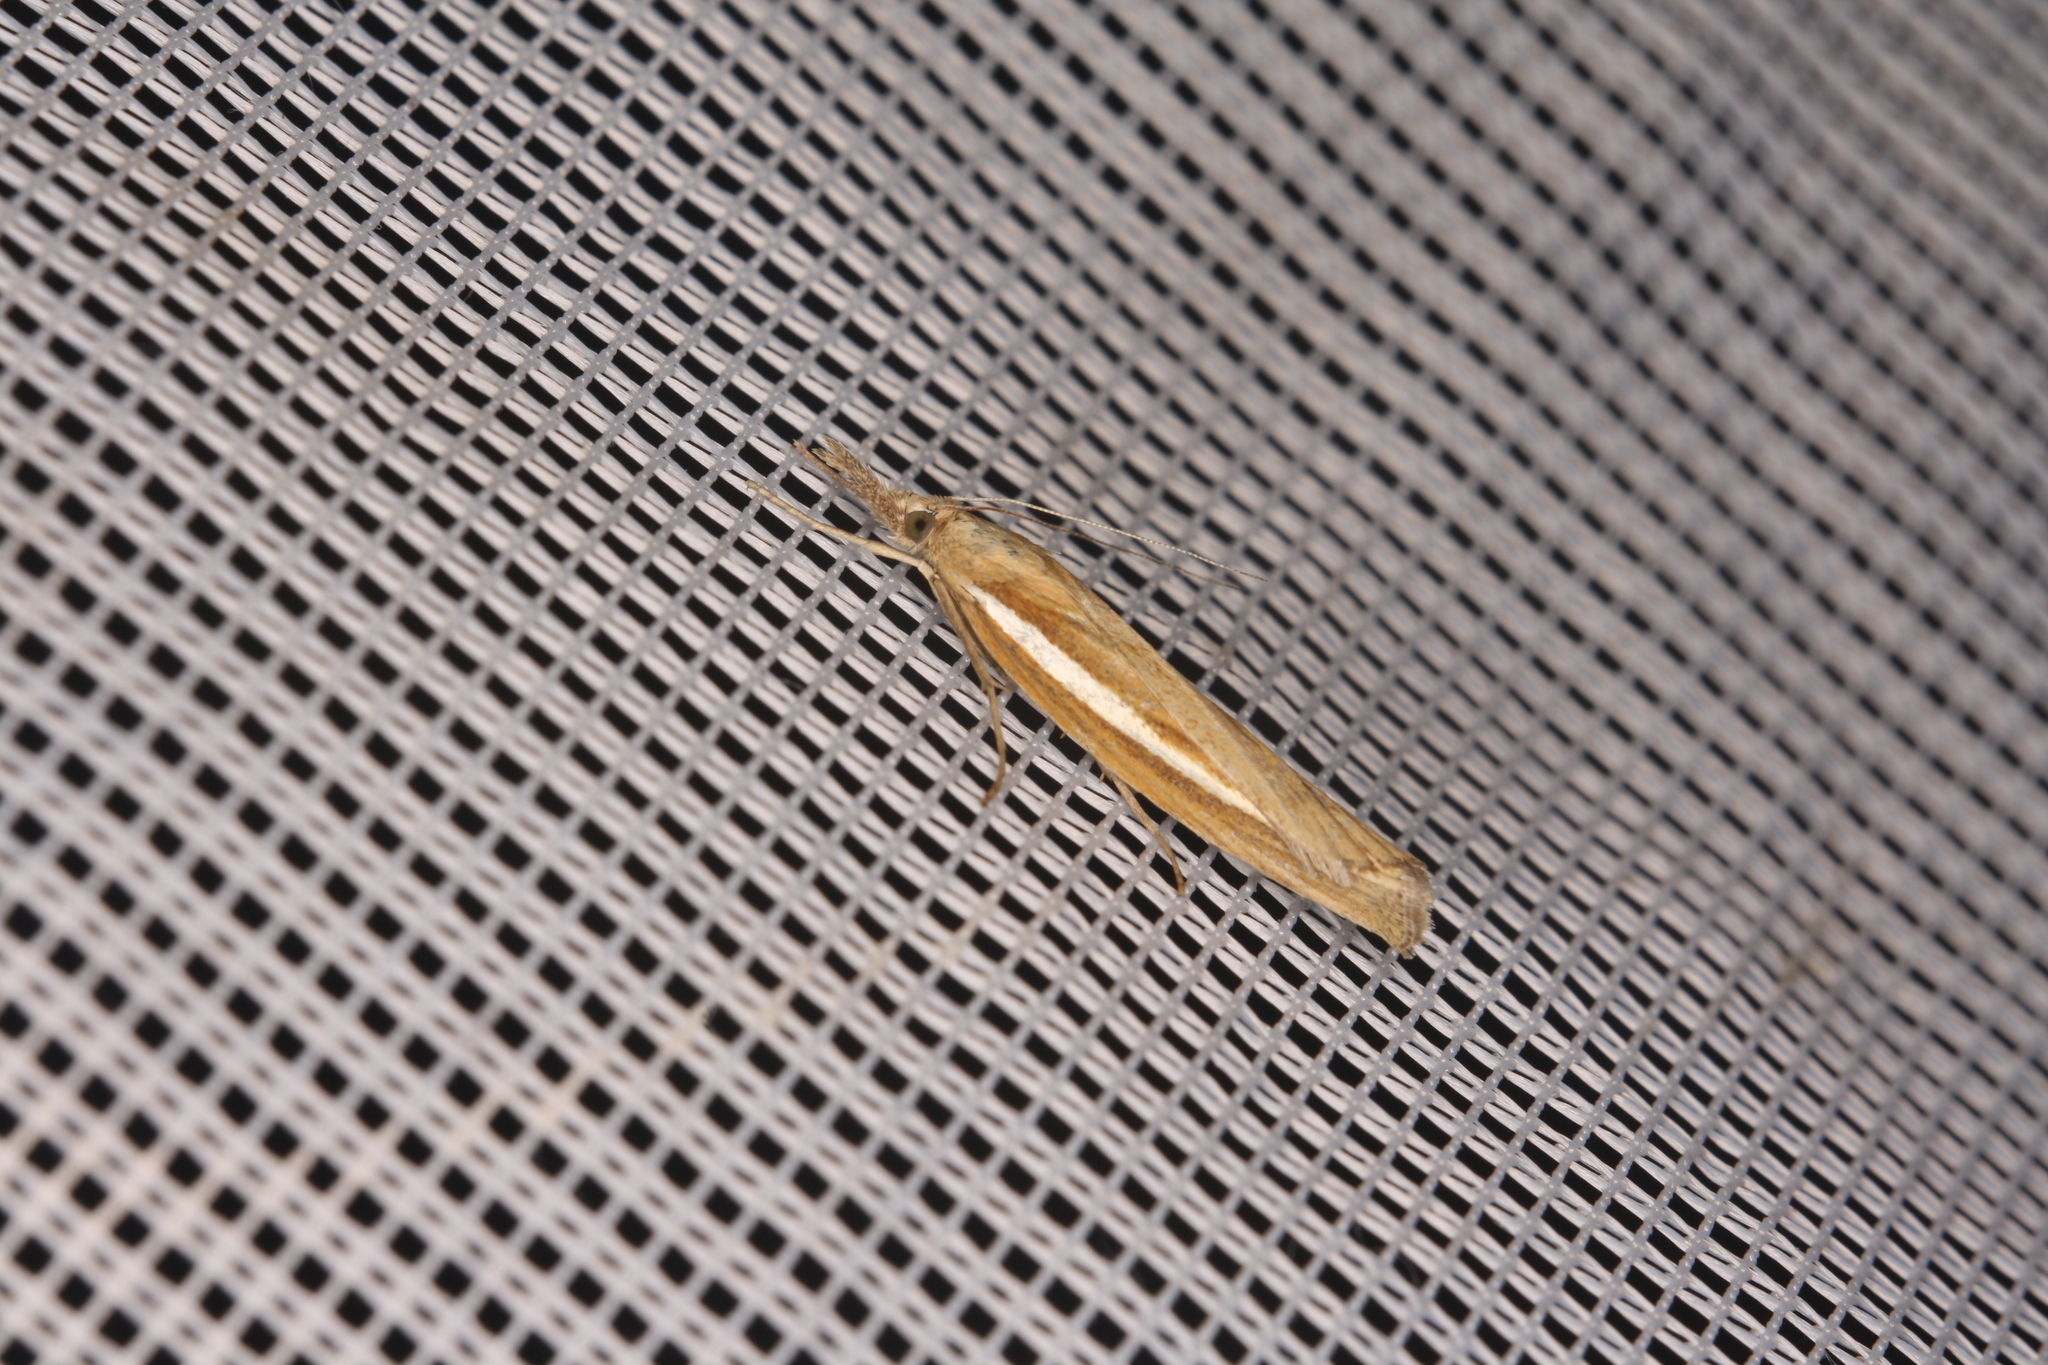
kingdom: Animalia
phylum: Arthropoda
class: Insecta
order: Lepidoptera
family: Crambidae
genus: Agriphila
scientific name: Agriphila tristellus
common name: Common grass-veneer
